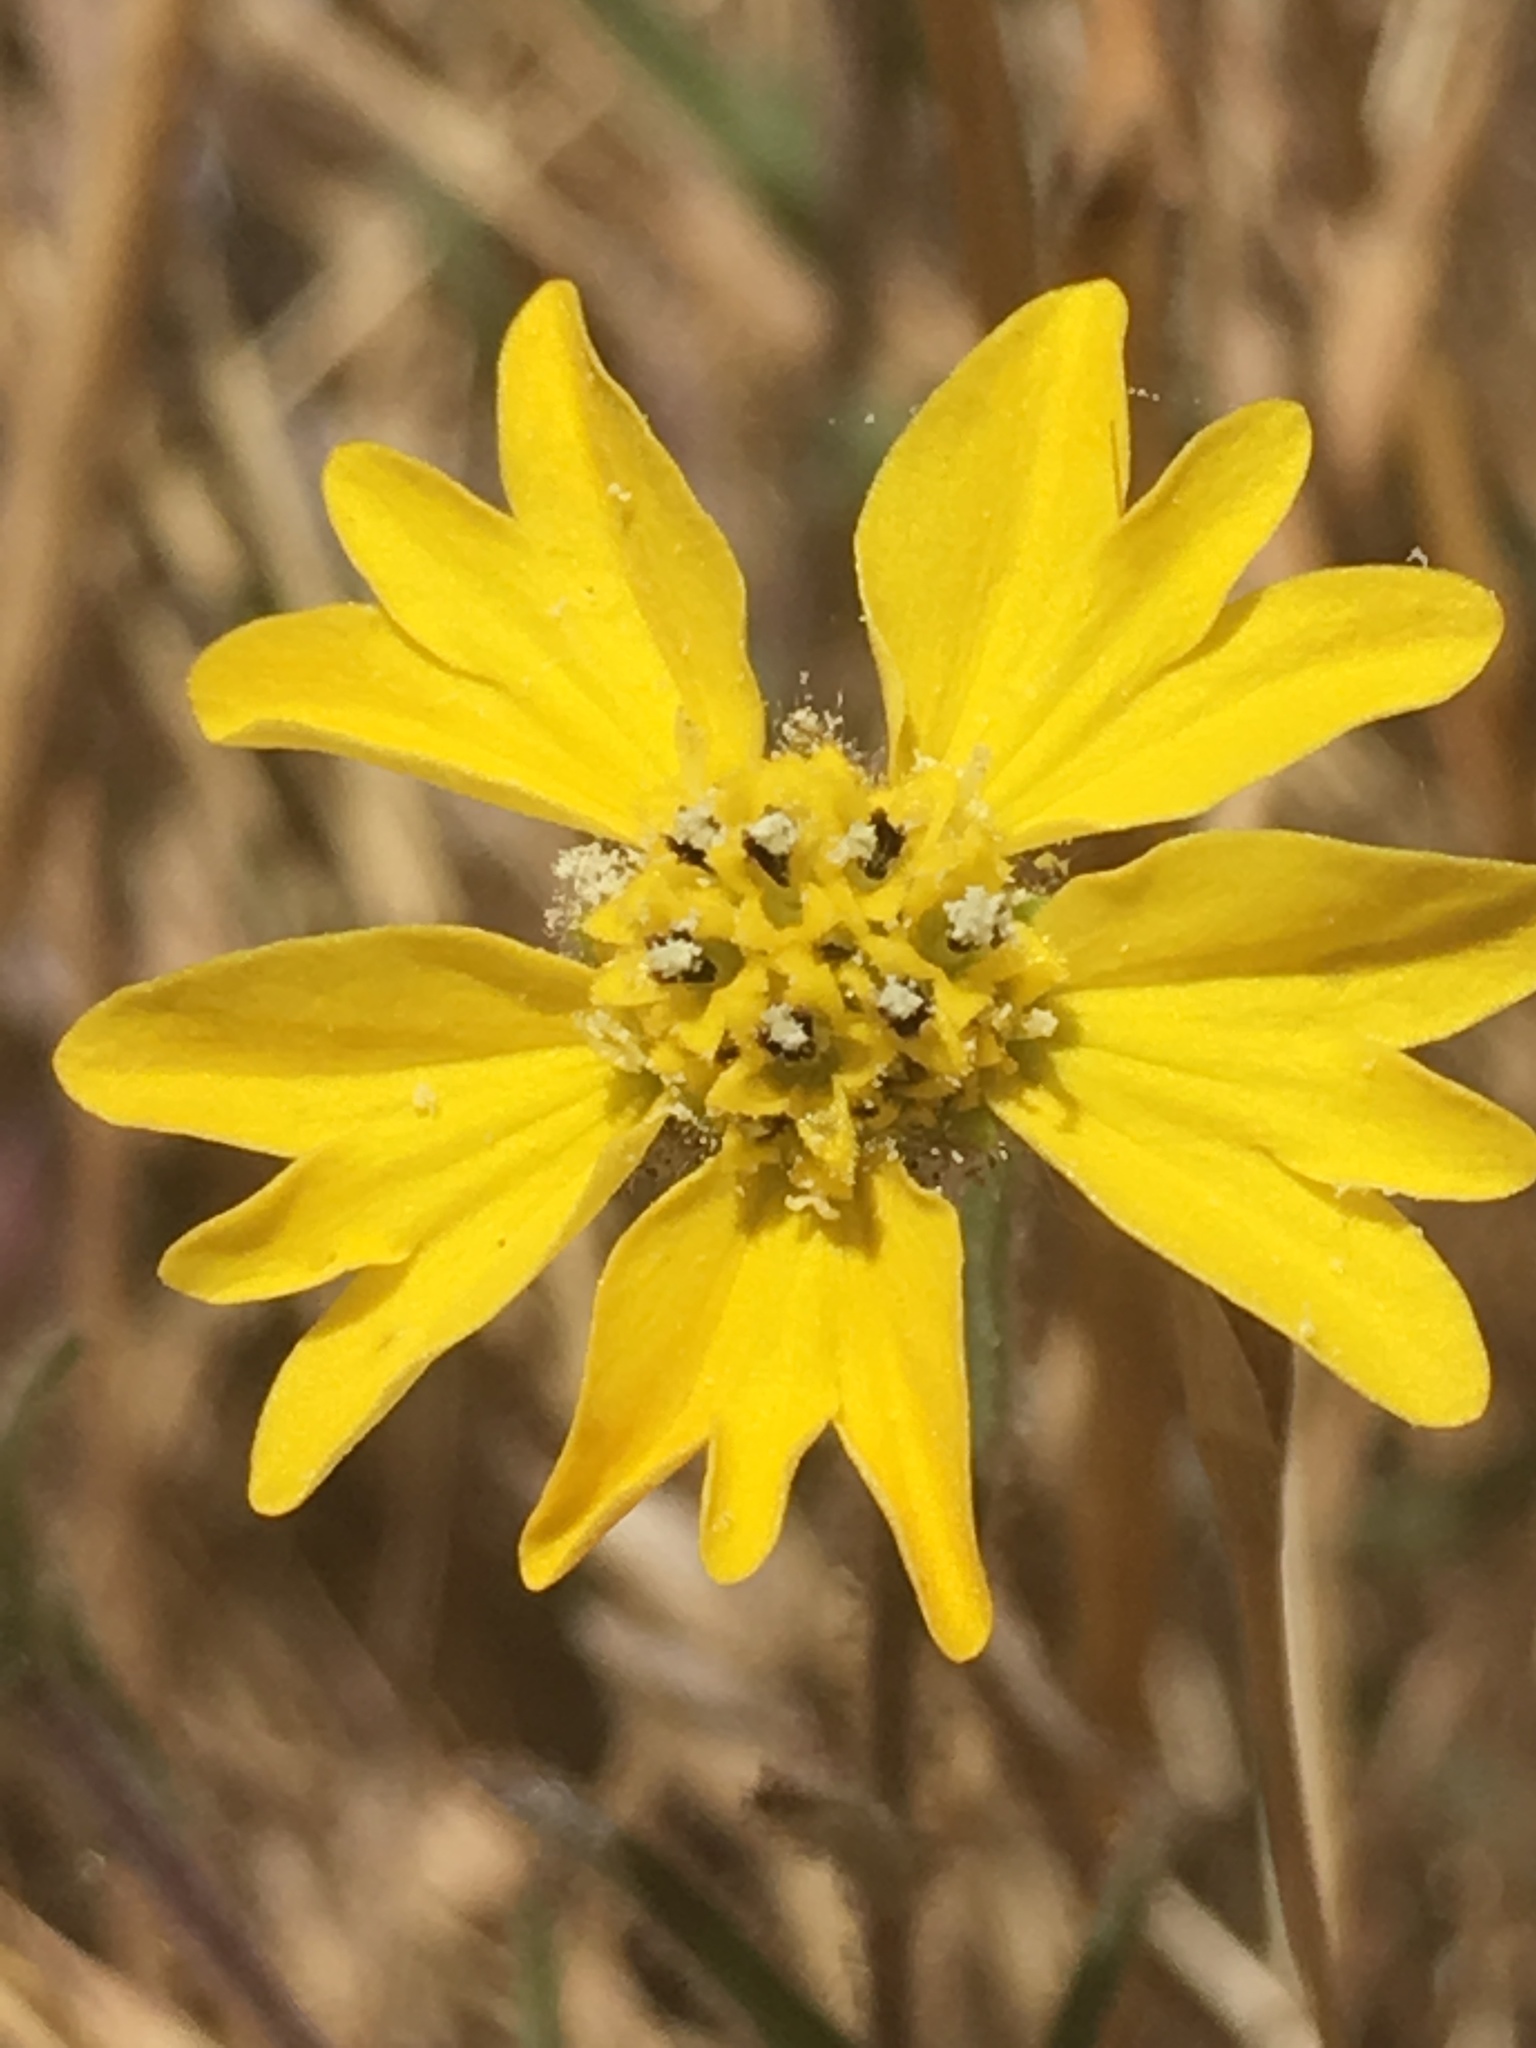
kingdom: Plantae
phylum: Tracheophyta
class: Magnoliopsida
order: Asterales
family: Asteraceae
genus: Hemizonia
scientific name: Hemizonia congesta
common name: Hayfield tarweed
